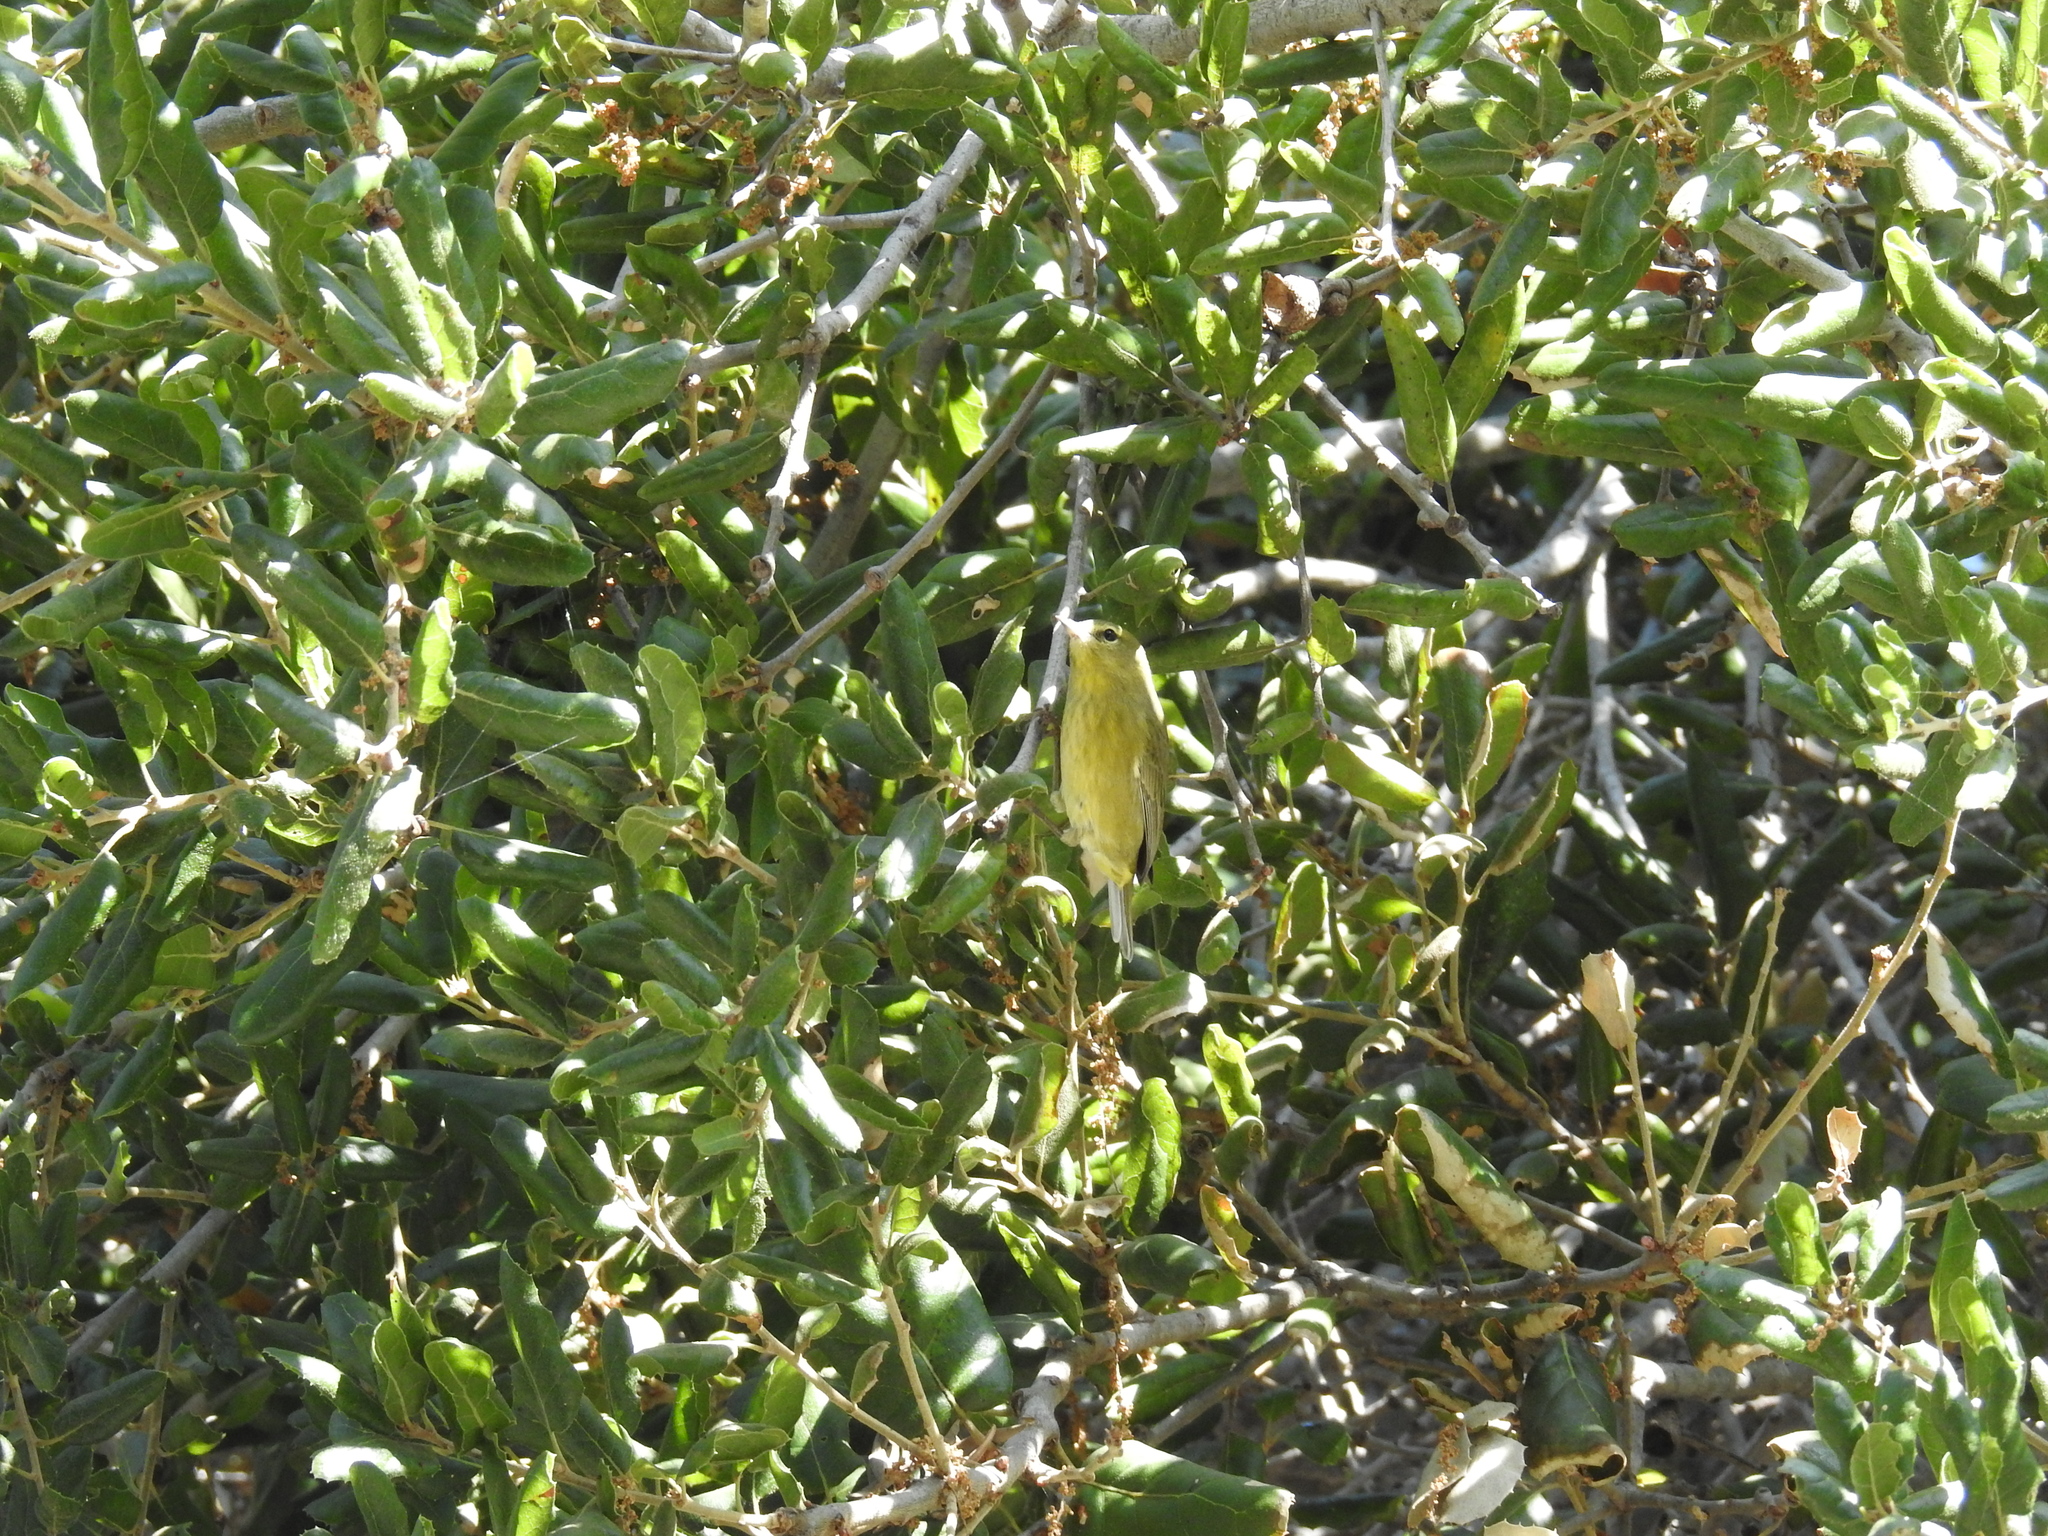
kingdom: Animalia
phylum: Chordata
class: Aves
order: Passeriformes
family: Parulidae
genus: Leiothlypis
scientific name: Leiothlypis celata
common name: Orange-crowned warbler
